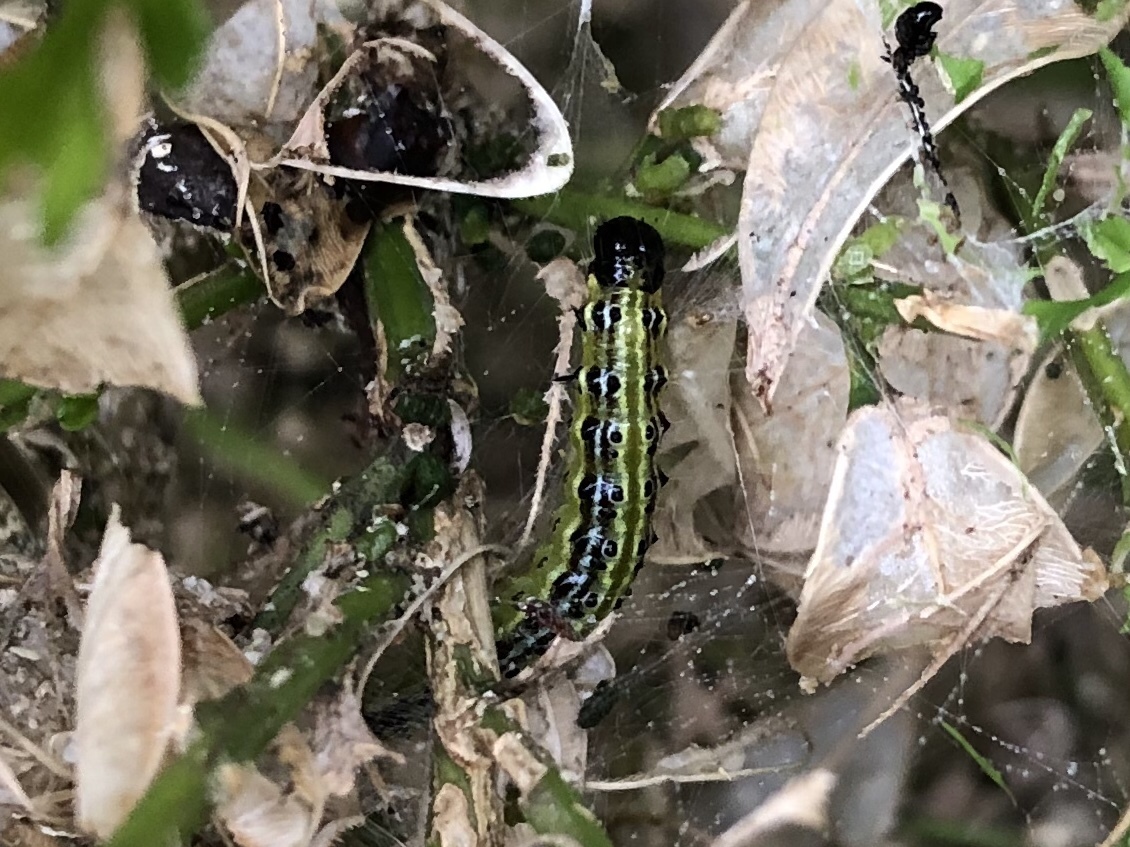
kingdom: Animalia
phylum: Arthropoda
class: Insecta
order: Lepidoptera
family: Crambidae
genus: Cydalima
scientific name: Cydalima perspectalis
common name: Box tree moth
